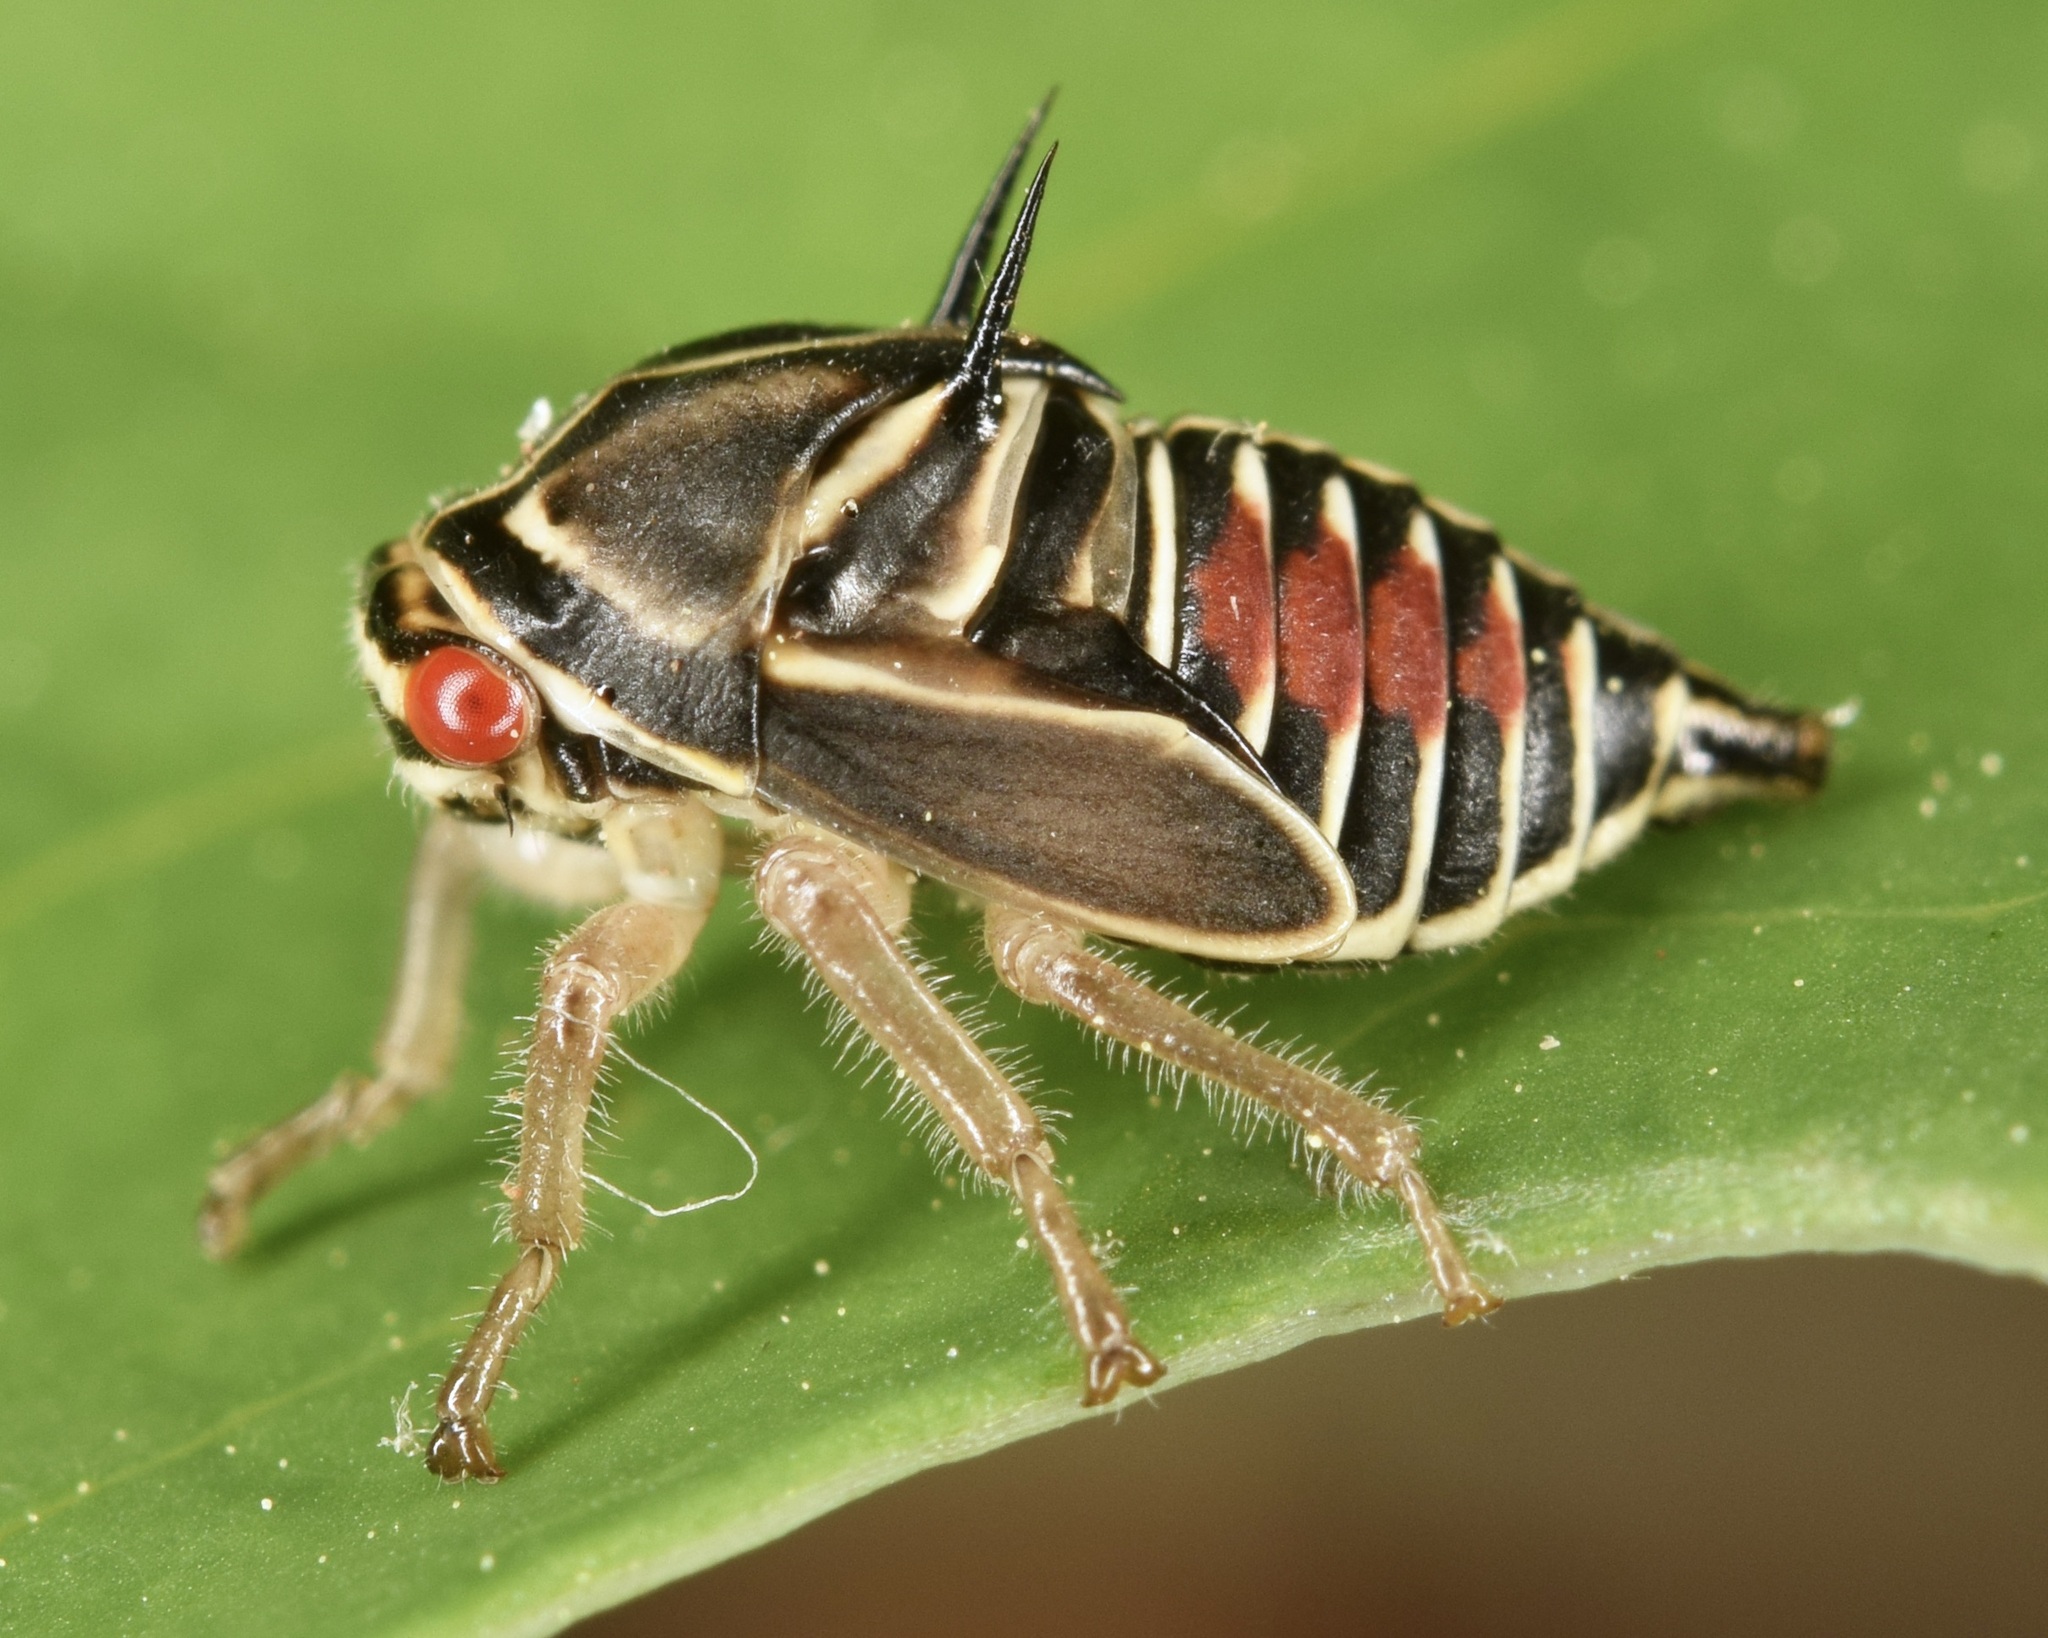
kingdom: Animalia
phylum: Arthropoda
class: Insecta
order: Hemiptera
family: Membracidae
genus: Platycotis
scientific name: Platycotis vittatus
